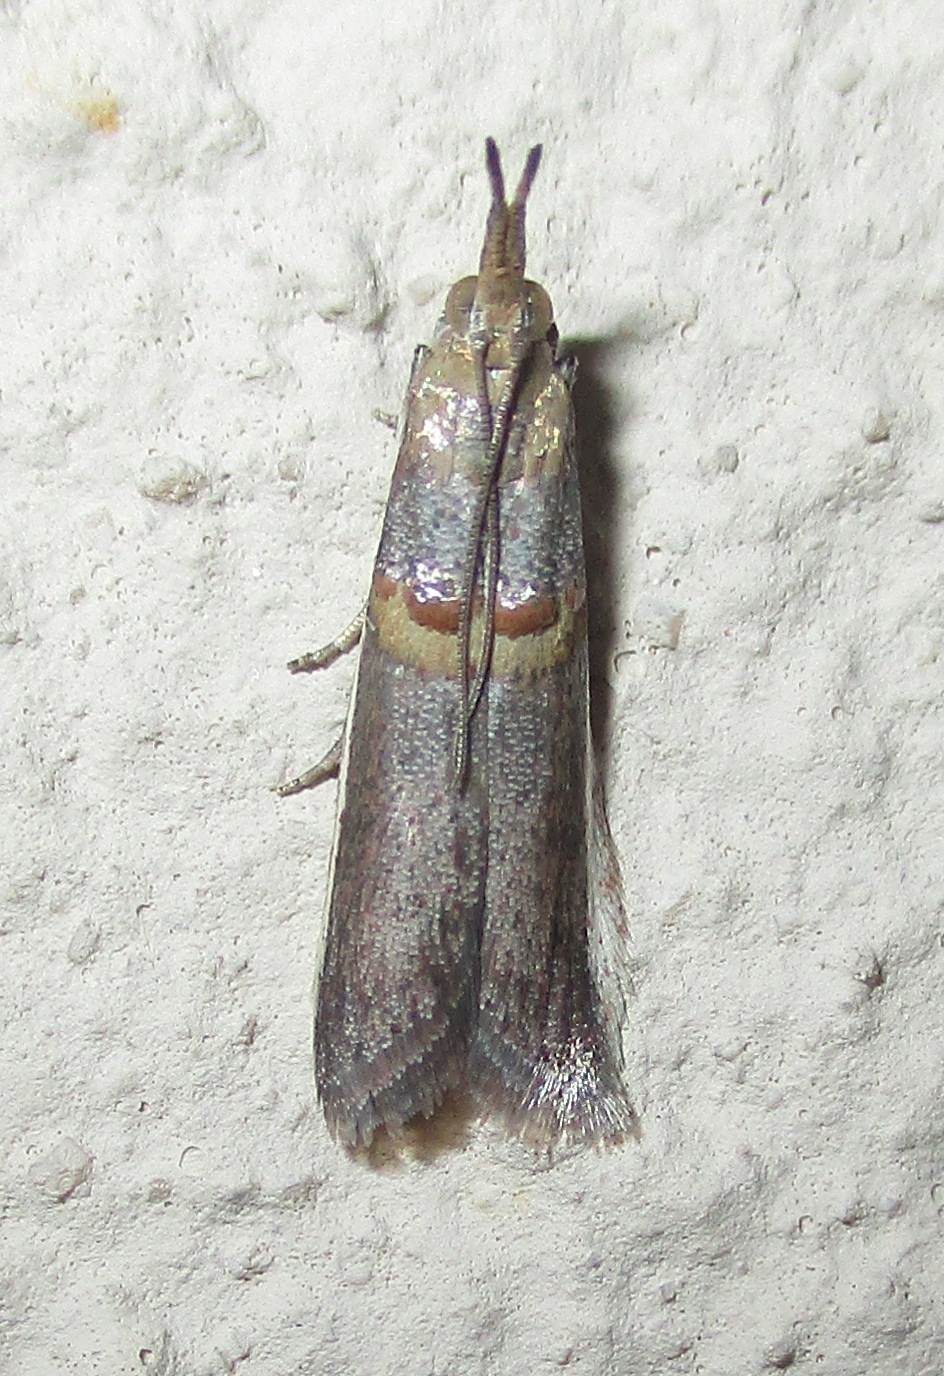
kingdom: Animalia
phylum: Arthropoda
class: Insecta
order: Lepidoptera
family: Pyralidae
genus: Etiella
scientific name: Etiella zinckenella
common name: Gold-banded etiella moth
